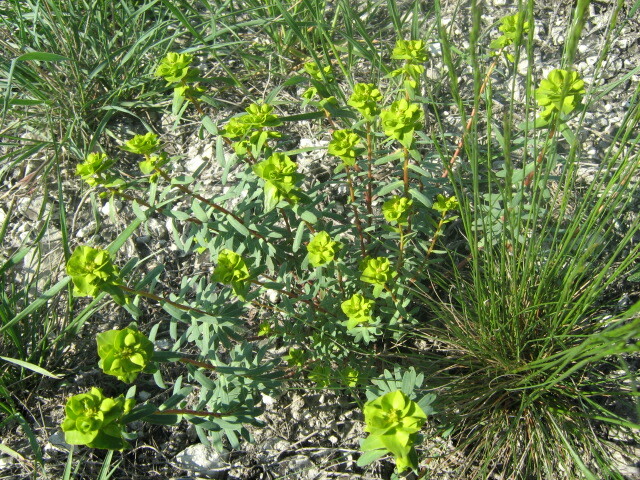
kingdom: Plantae
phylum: Tracheophyta
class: Magnoliopsida
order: Malpighiales
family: Euphorbiaceae
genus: Euphorbia
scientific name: Euphorbia petrophila
